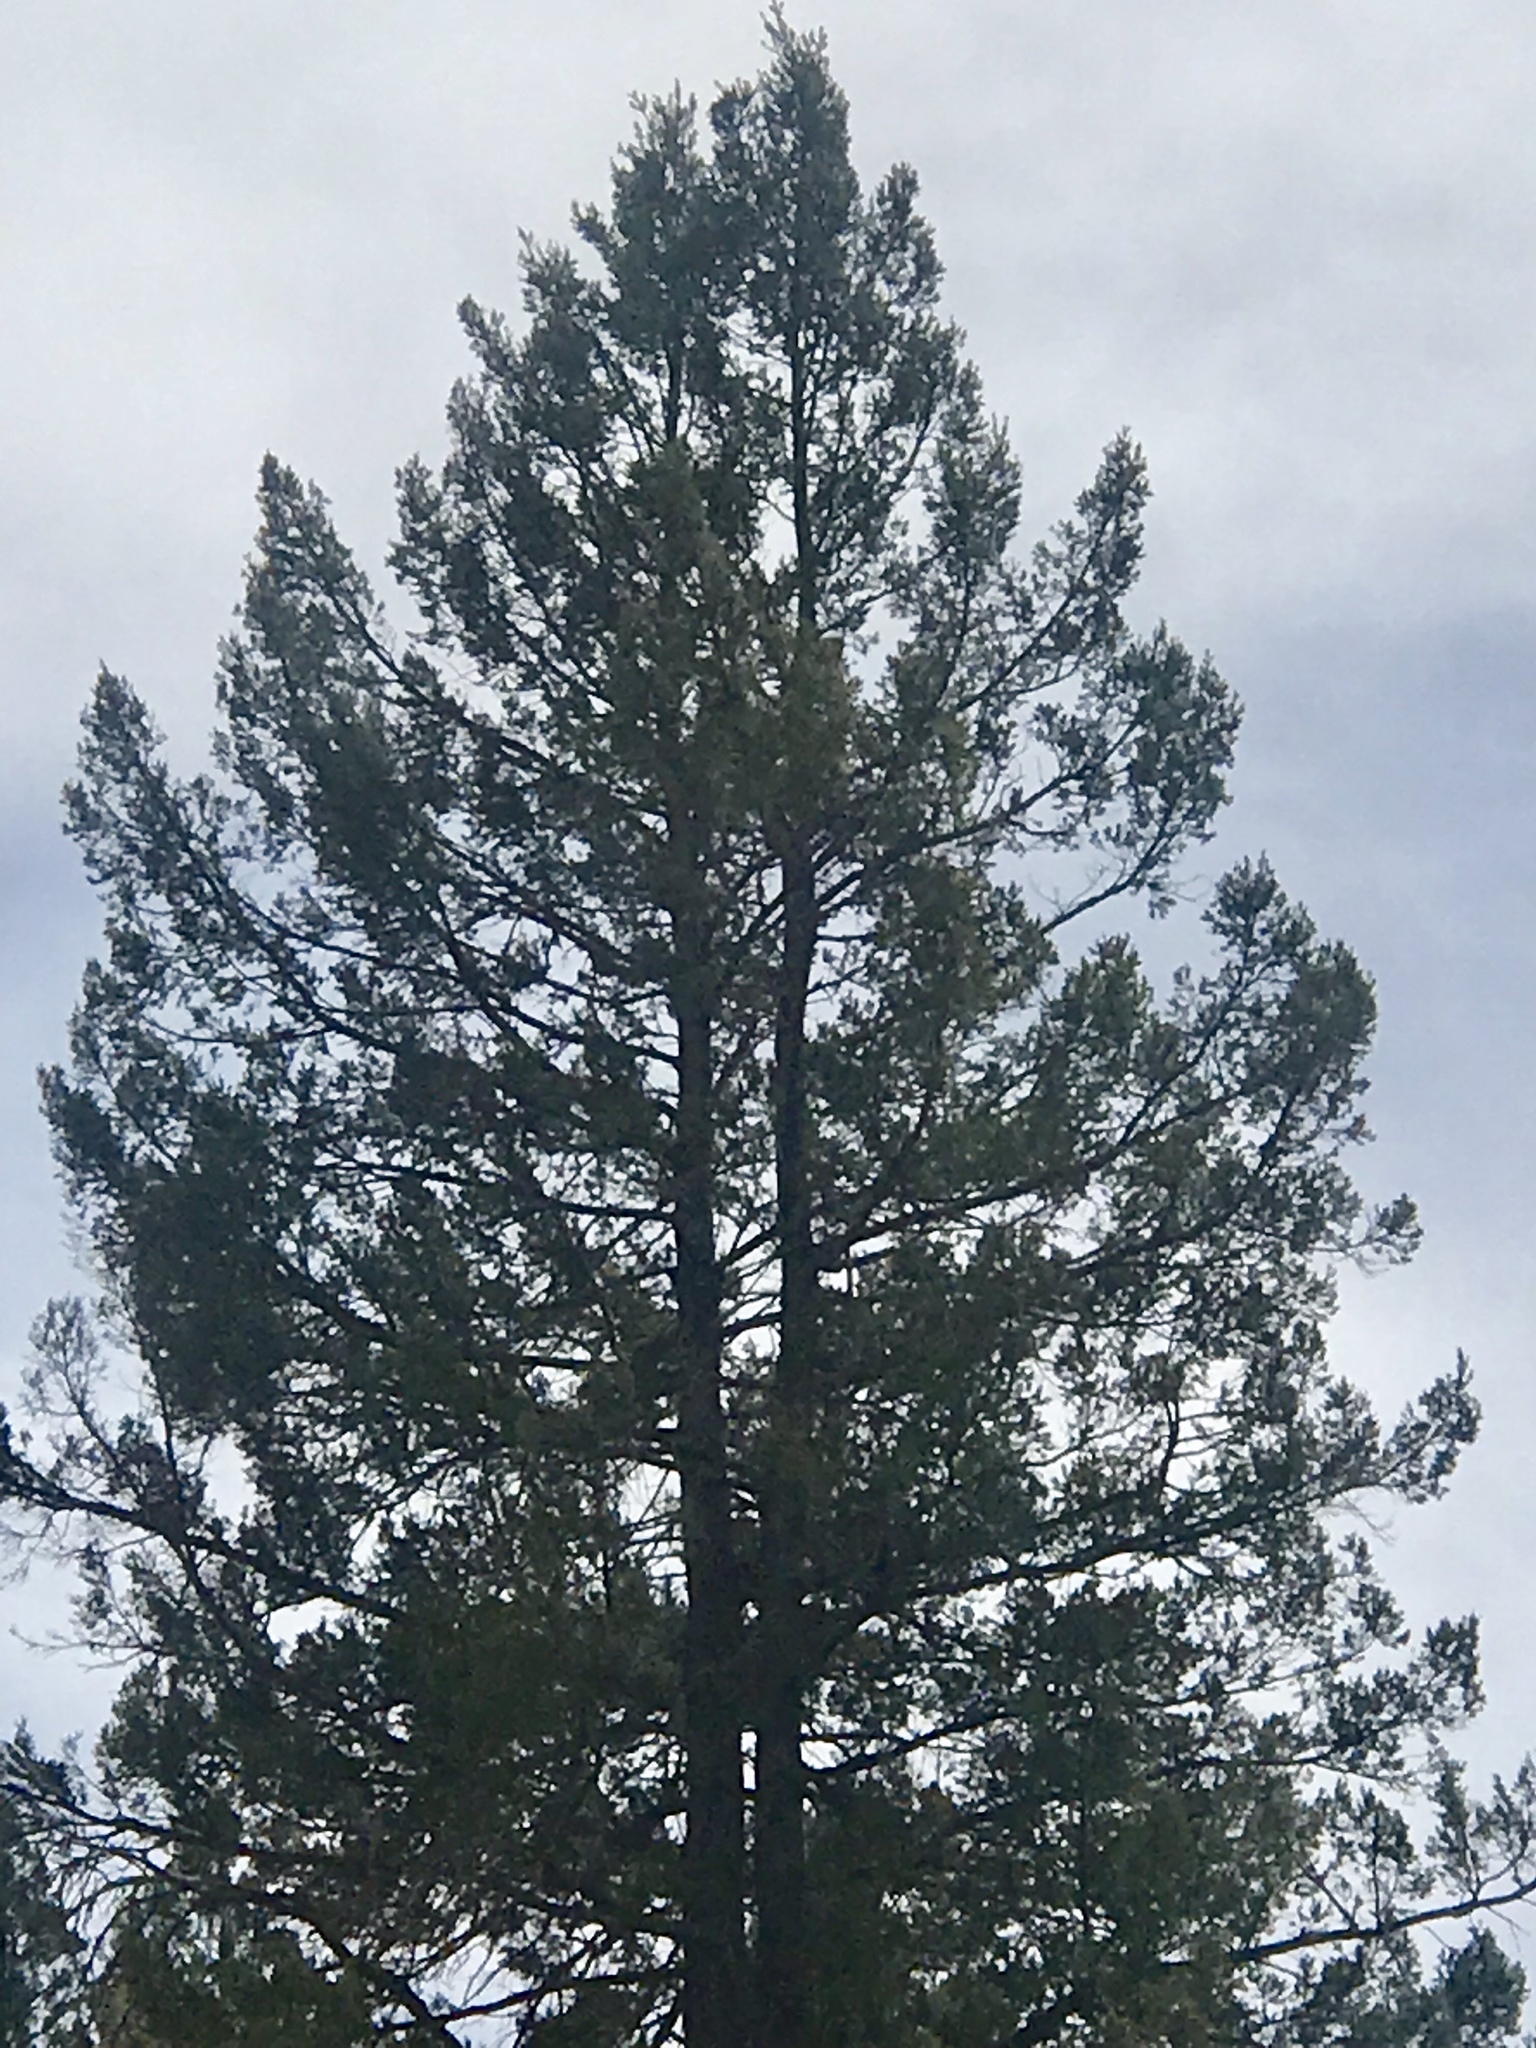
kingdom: Plantae
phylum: Tracheophyta
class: Pinopsida
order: Pinales
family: Pinaceae
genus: Pseudotsuga
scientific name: Pseudotsuga menziesii
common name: Douglas fir
